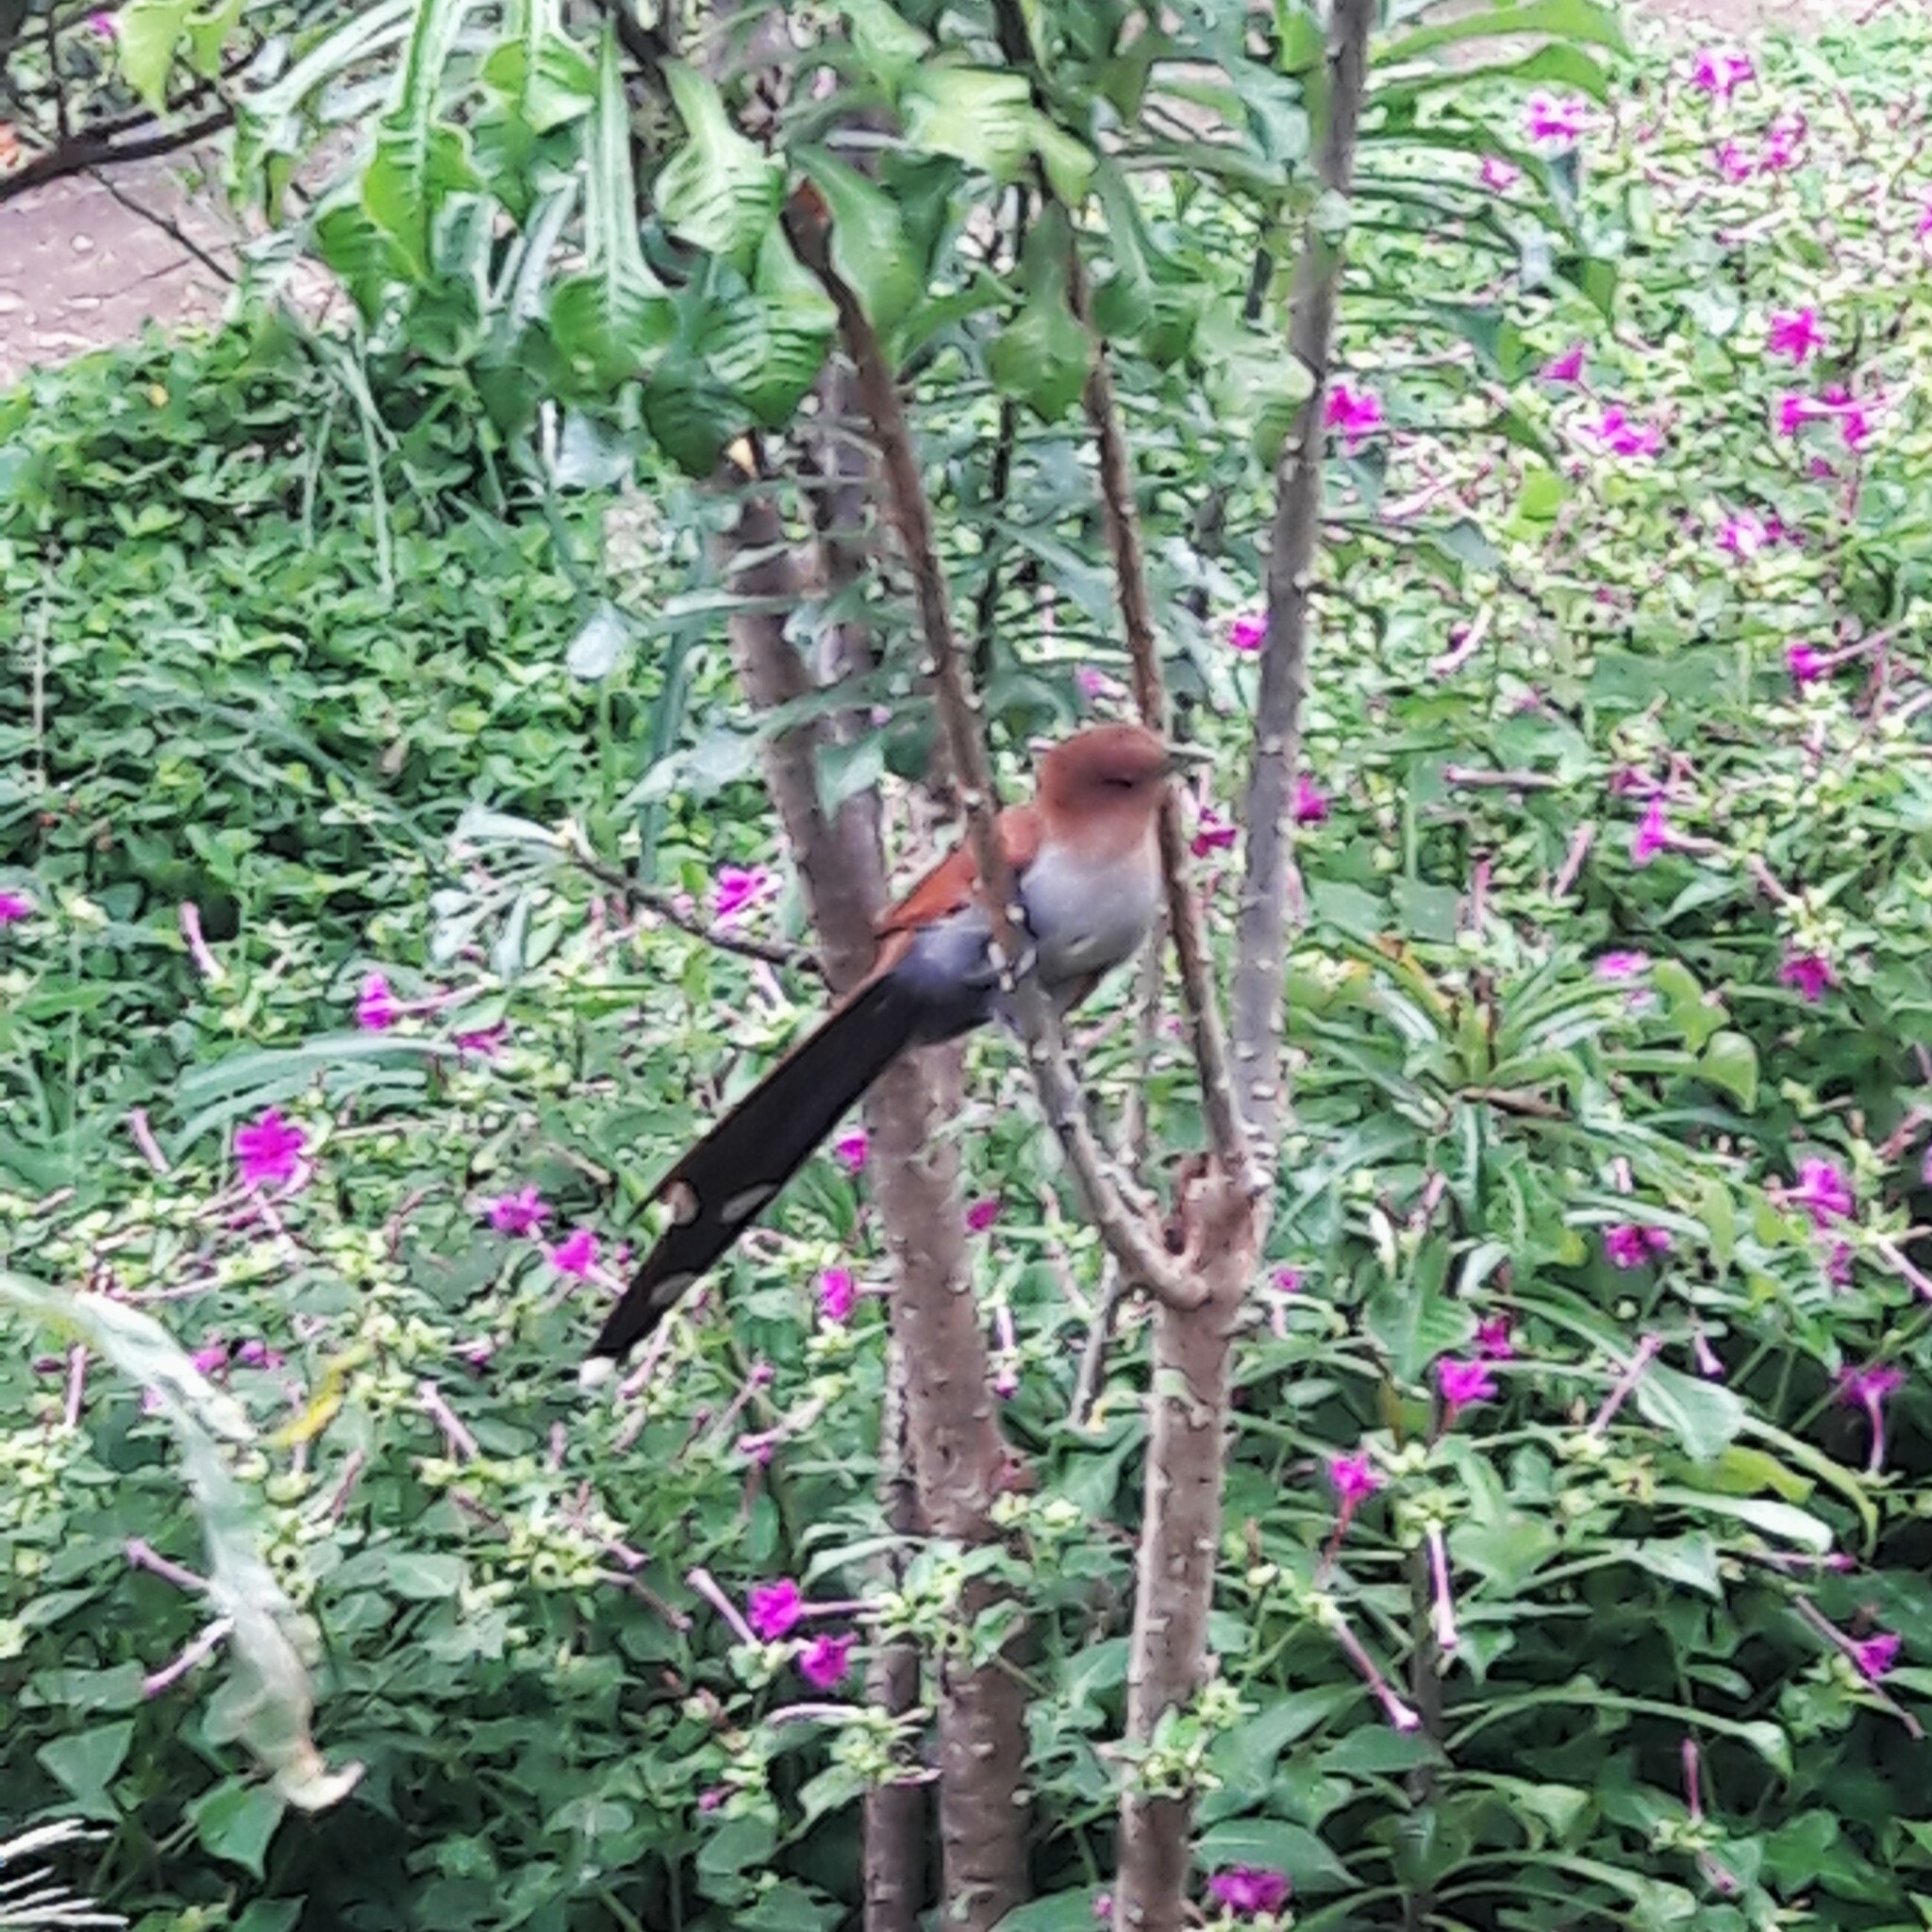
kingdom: Animalia
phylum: Chordata
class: Aves
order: Cuculiformes
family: Cuculidae
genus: Piaya
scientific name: Piaya cayana
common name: Squirrel cuckoo
